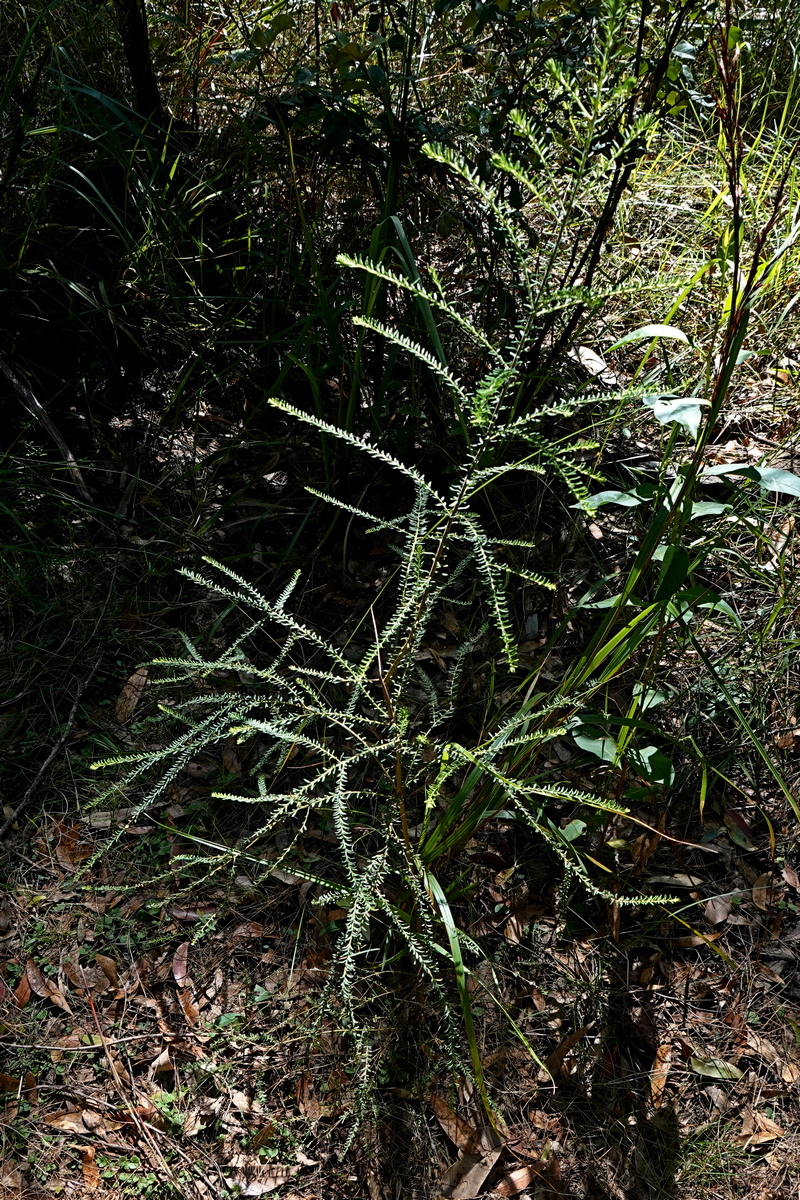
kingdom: Plantae
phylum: Tracheophyta
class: Magnoliopsida
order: Asterales
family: Asteraceae
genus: Ozothamnus
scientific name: Ozothamnus diosmifolius
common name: White-dogwood
